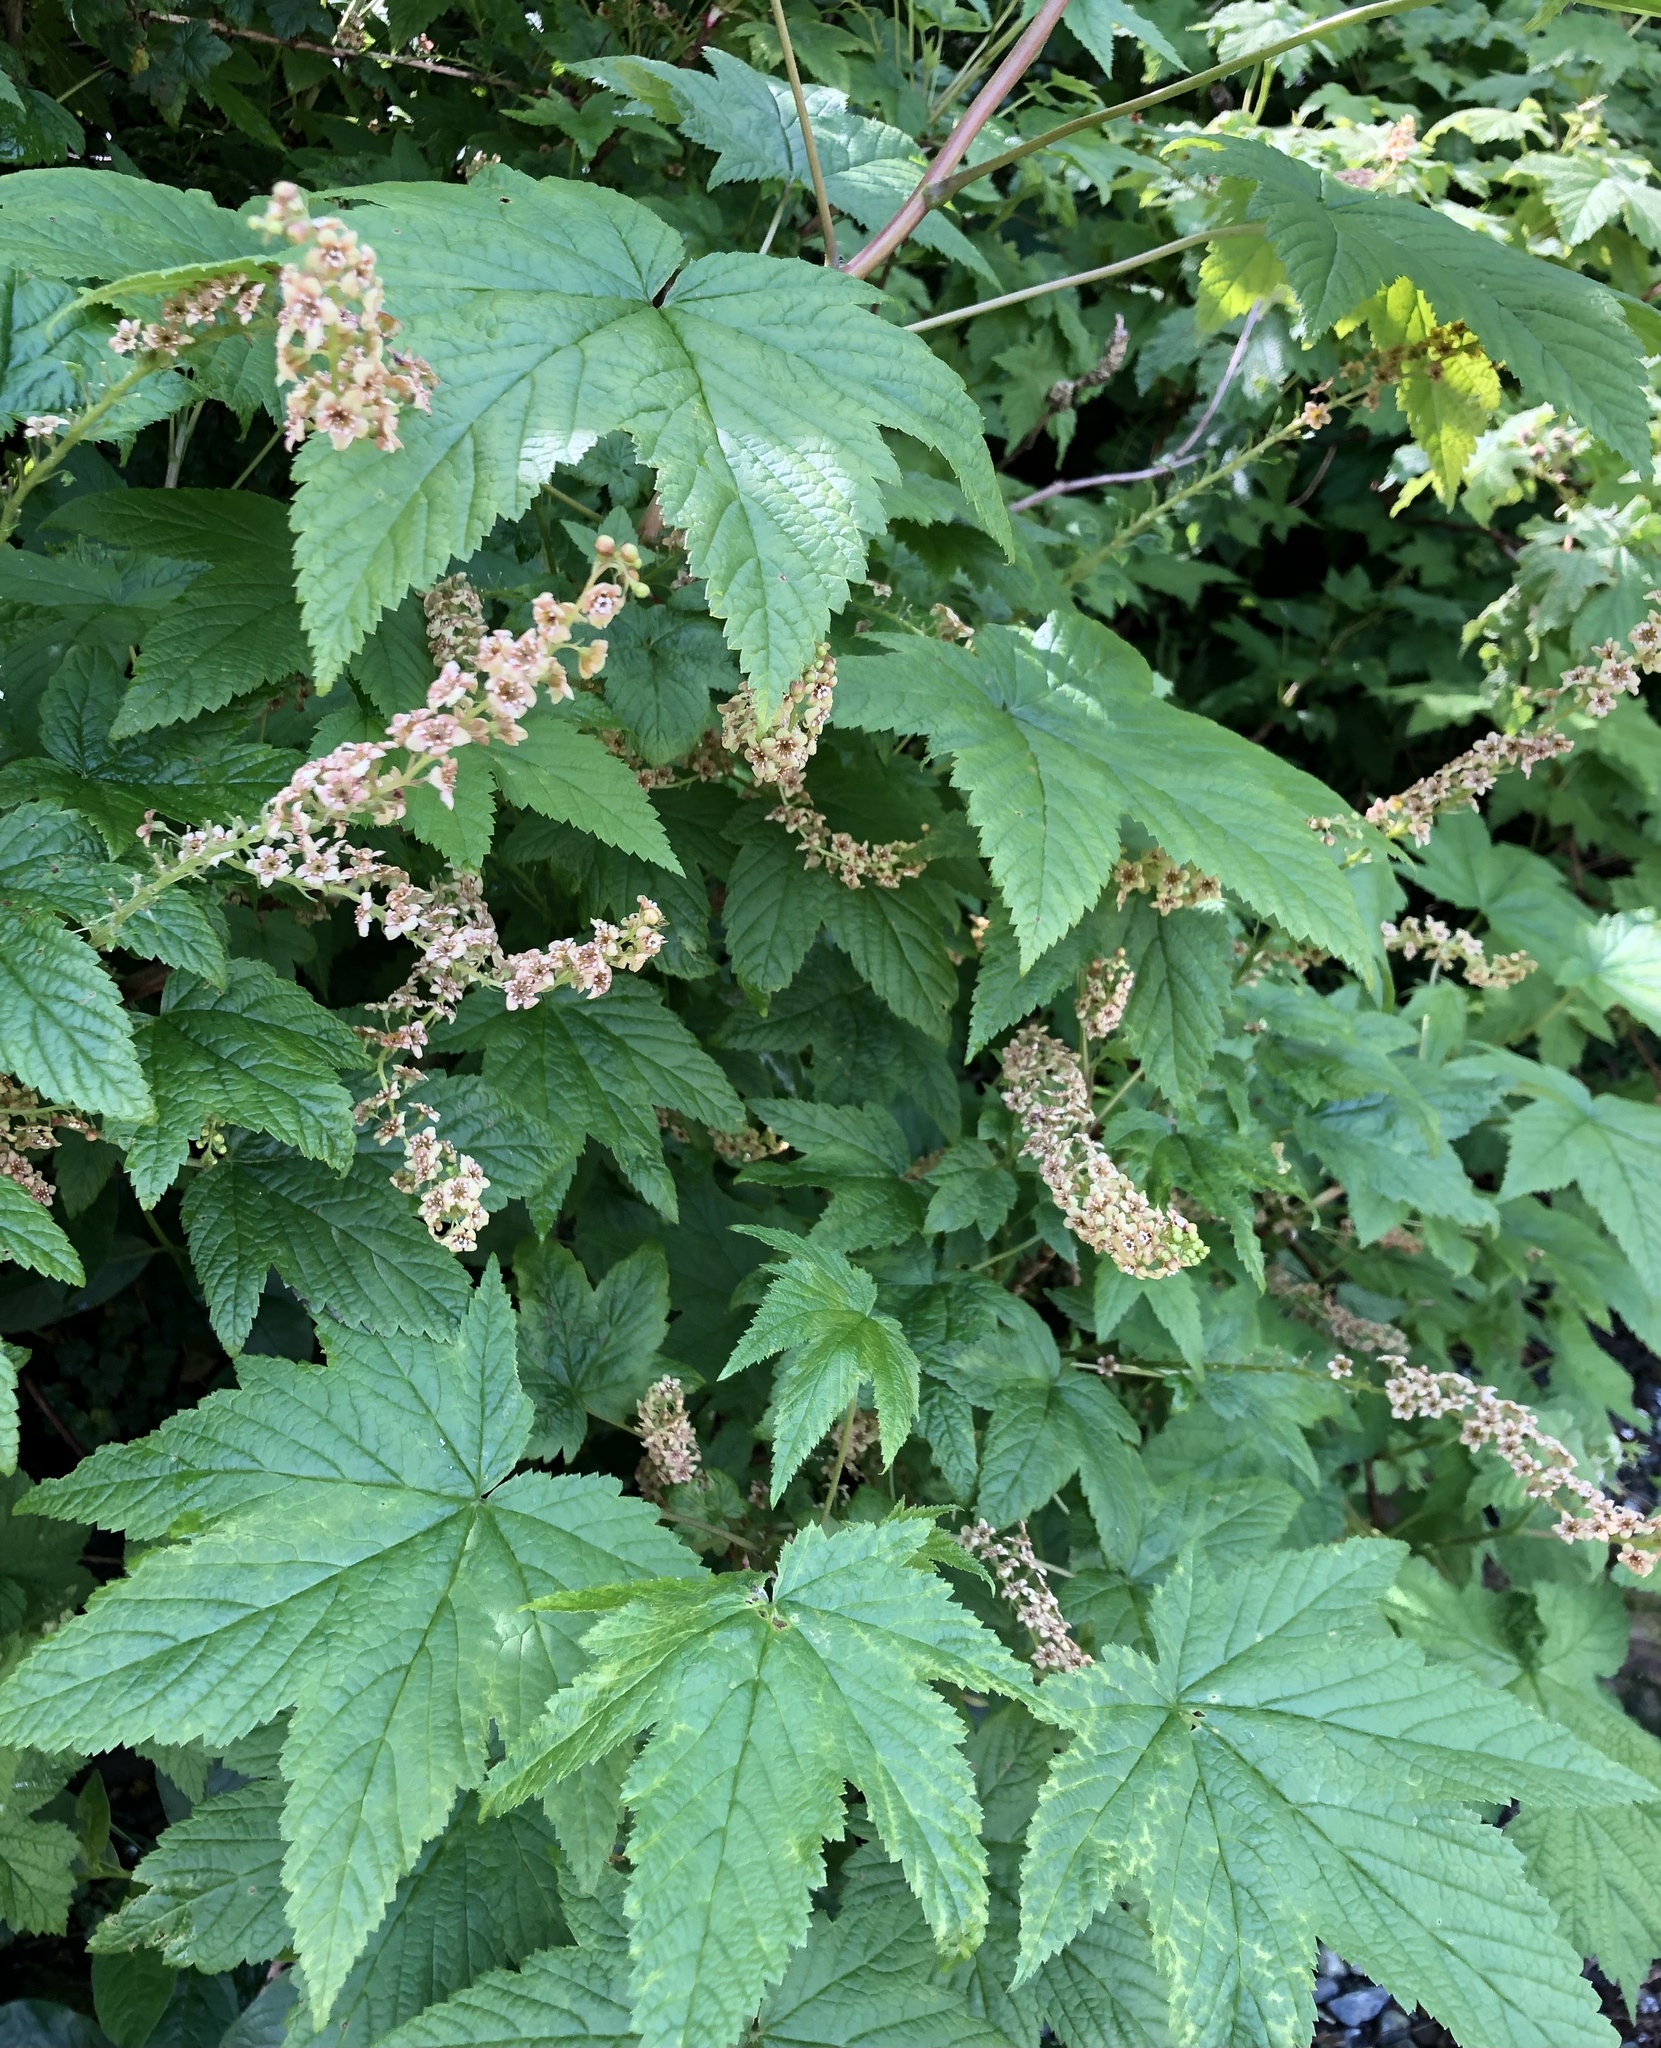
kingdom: Plantae
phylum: Tracheophyta
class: Magnoliopsida
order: Saxifragales
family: Grossulariaceae
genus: Ribes
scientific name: Ribes bracteosum
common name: California black currant
